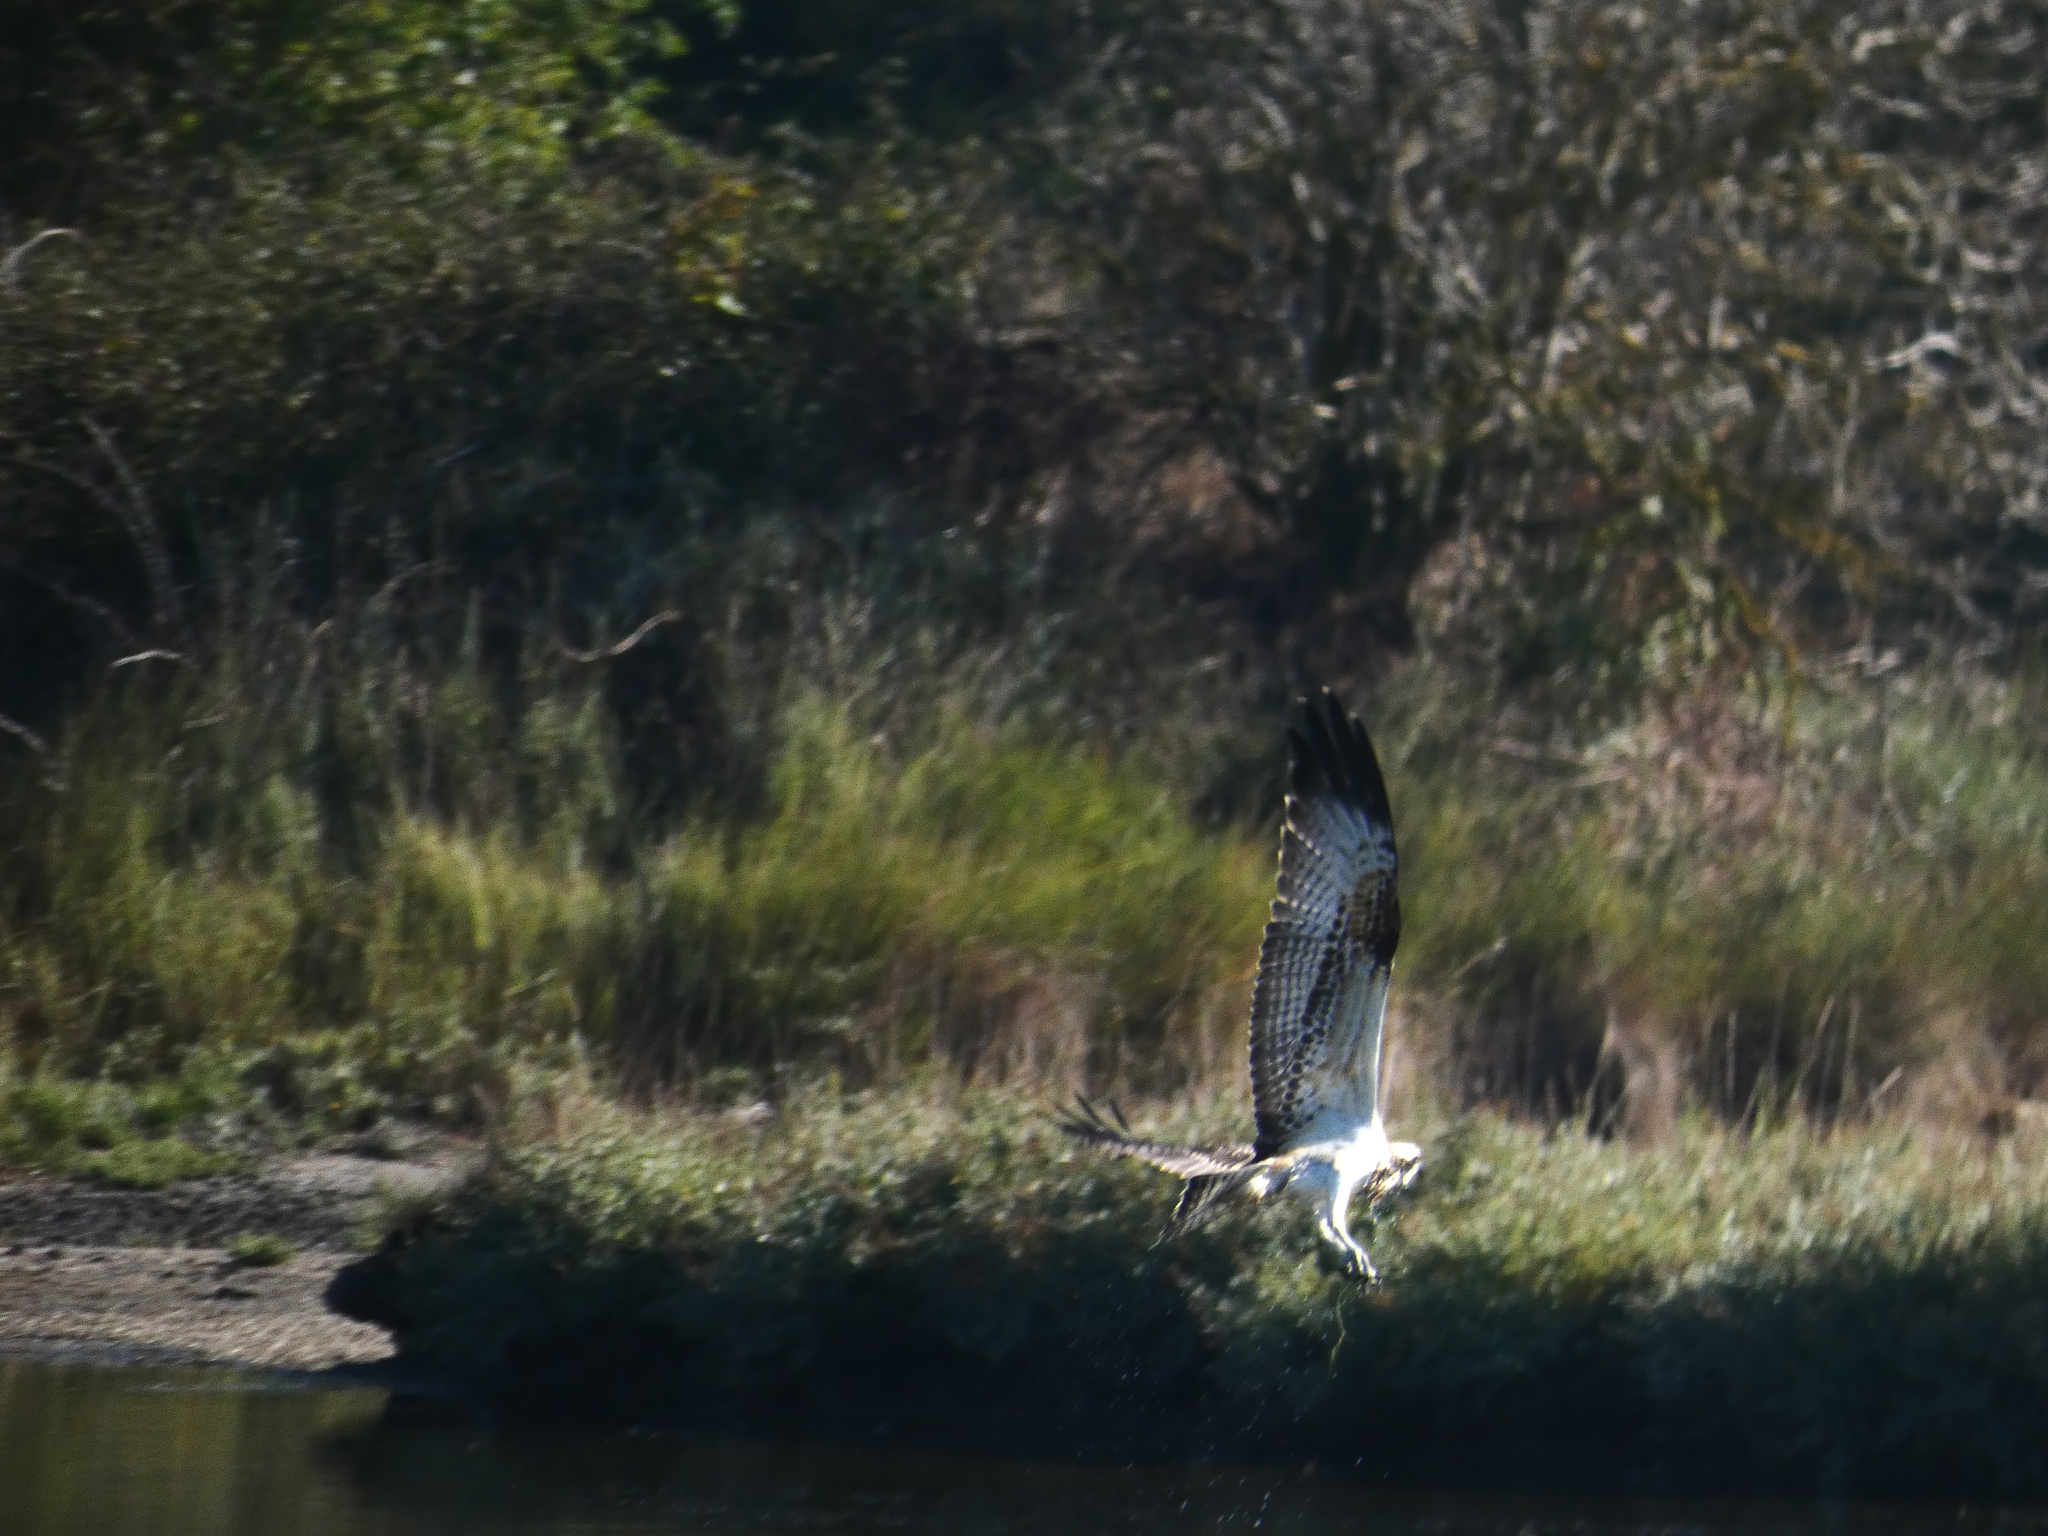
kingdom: Animalia
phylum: Chordata
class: Aves
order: Accipitriformes
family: Pandionidae
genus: Pandion
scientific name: Pandion haliaetus
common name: Osprey
